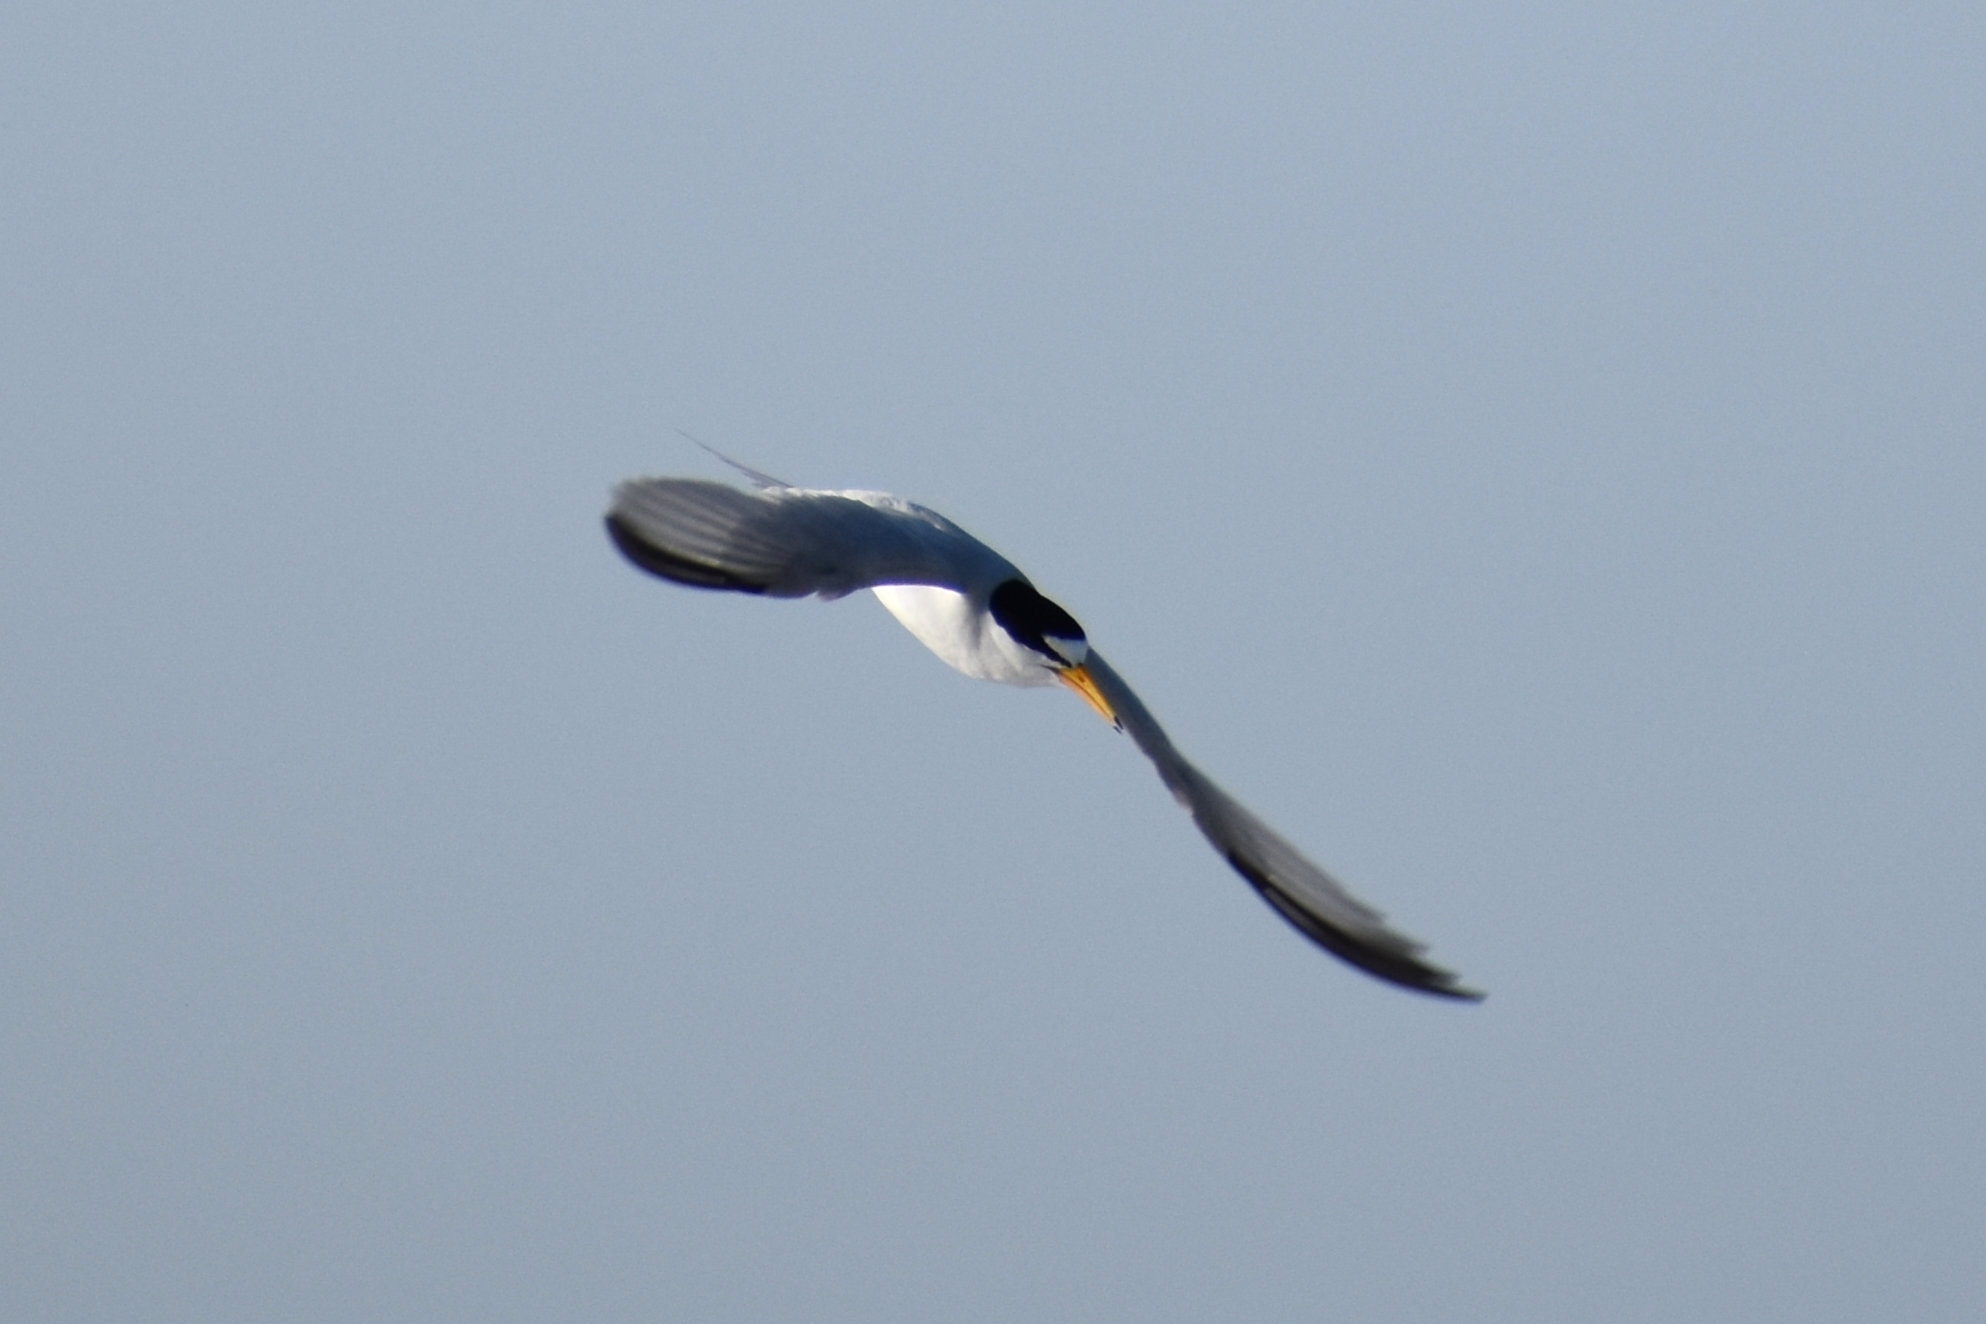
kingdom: Animalia
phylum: Chordata
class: Aves
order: Charadriiformes
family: Laridae
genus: Sternula
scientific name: Sternula antillarum
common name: Least tern
